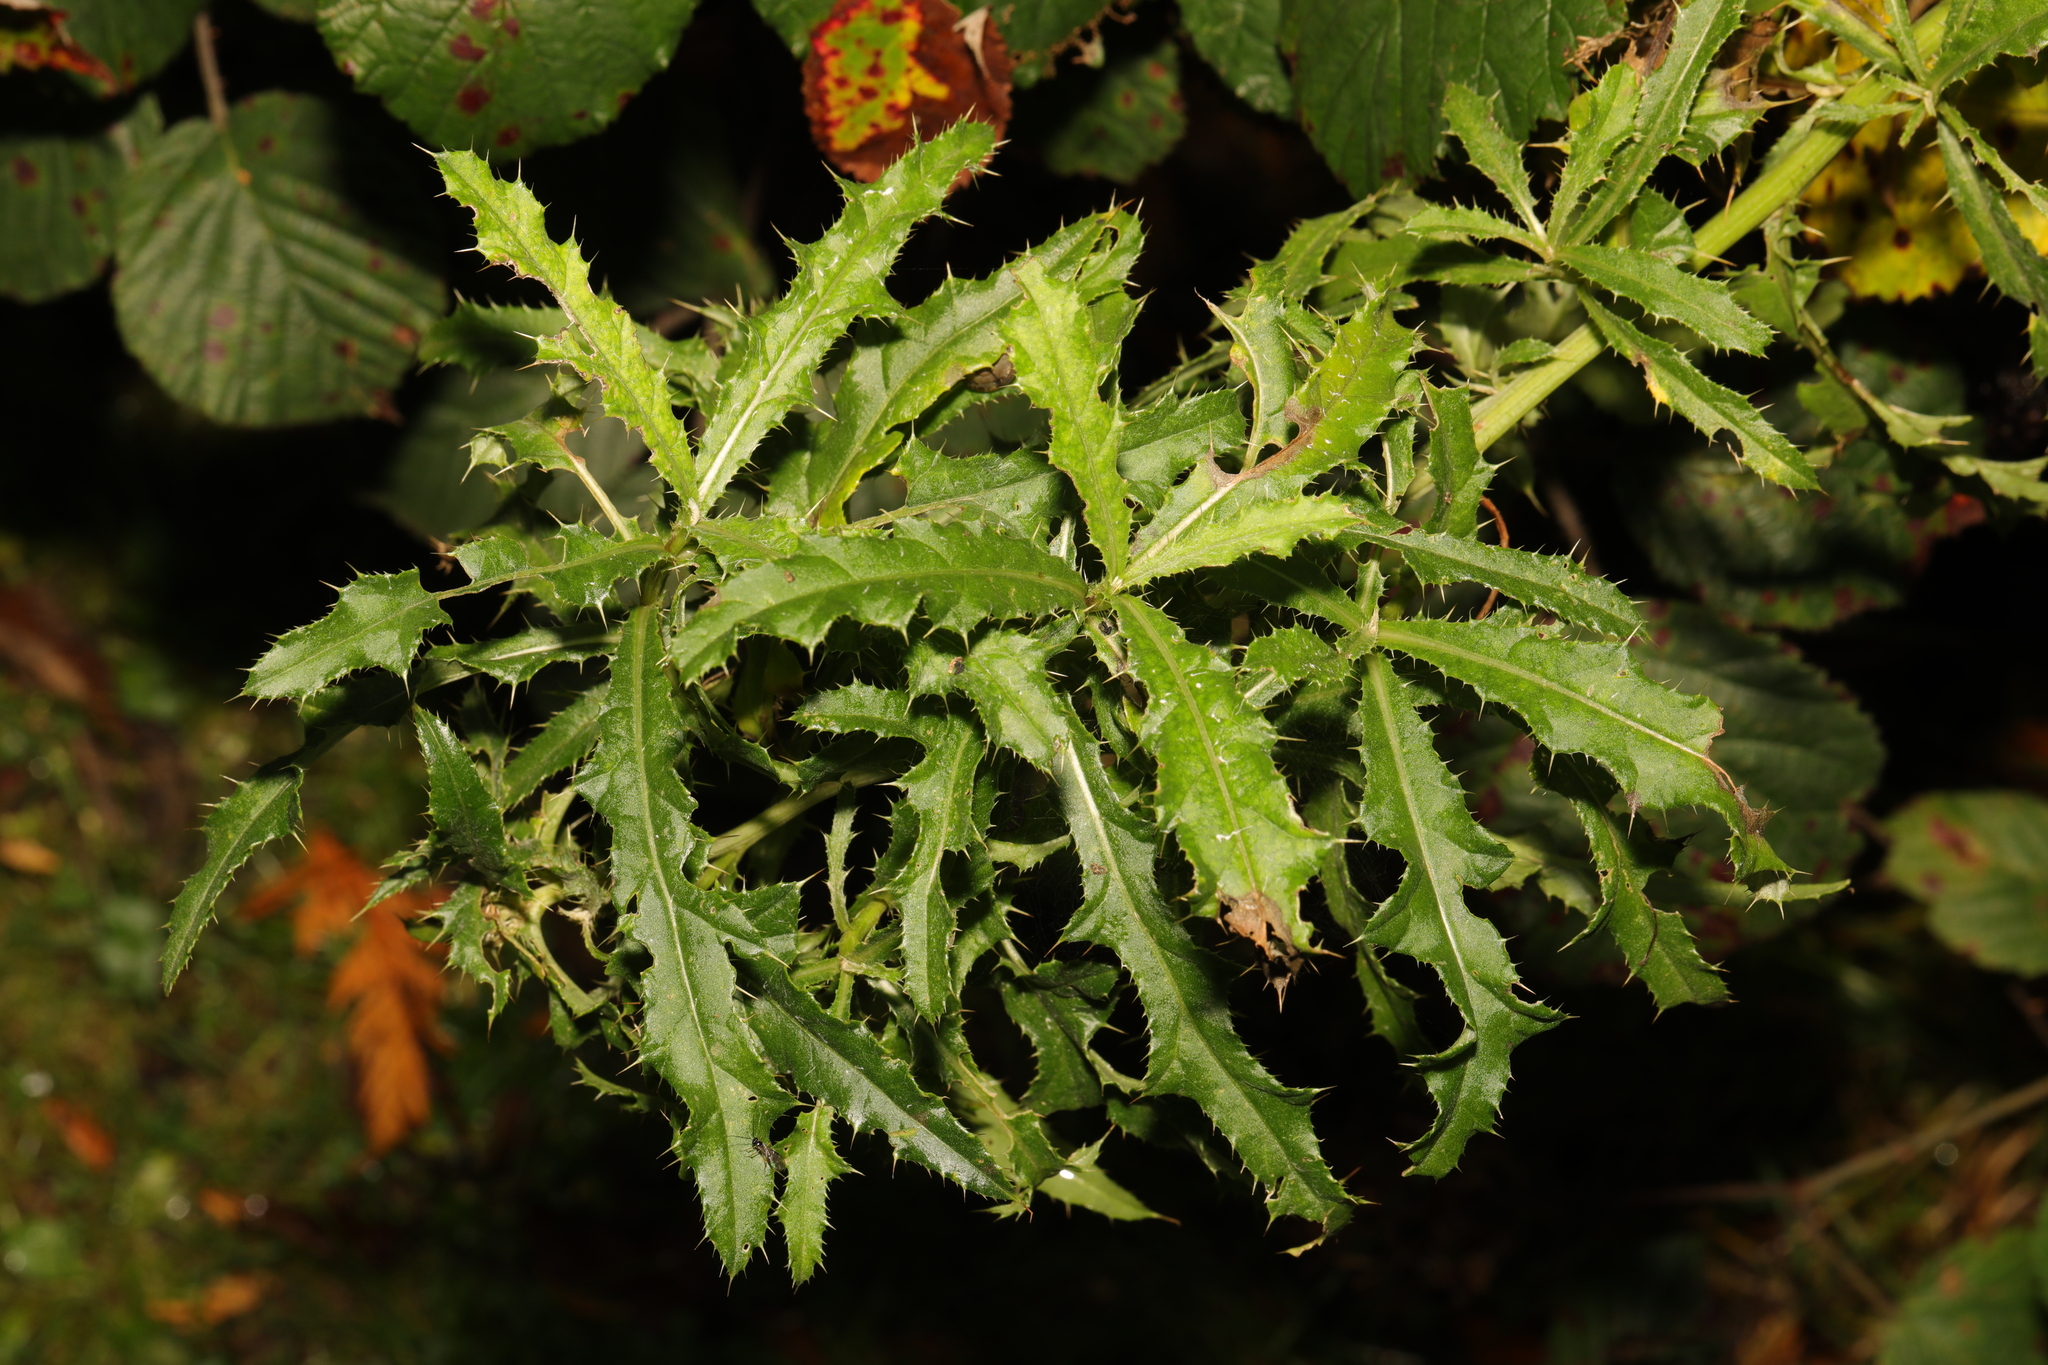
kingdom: Plantae
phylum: Tracheophyta
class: Magnoliopsida
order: Asterales
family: Asteraceae
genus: Cirsium
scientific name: Cirsium arvense
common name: Creeping thistle
